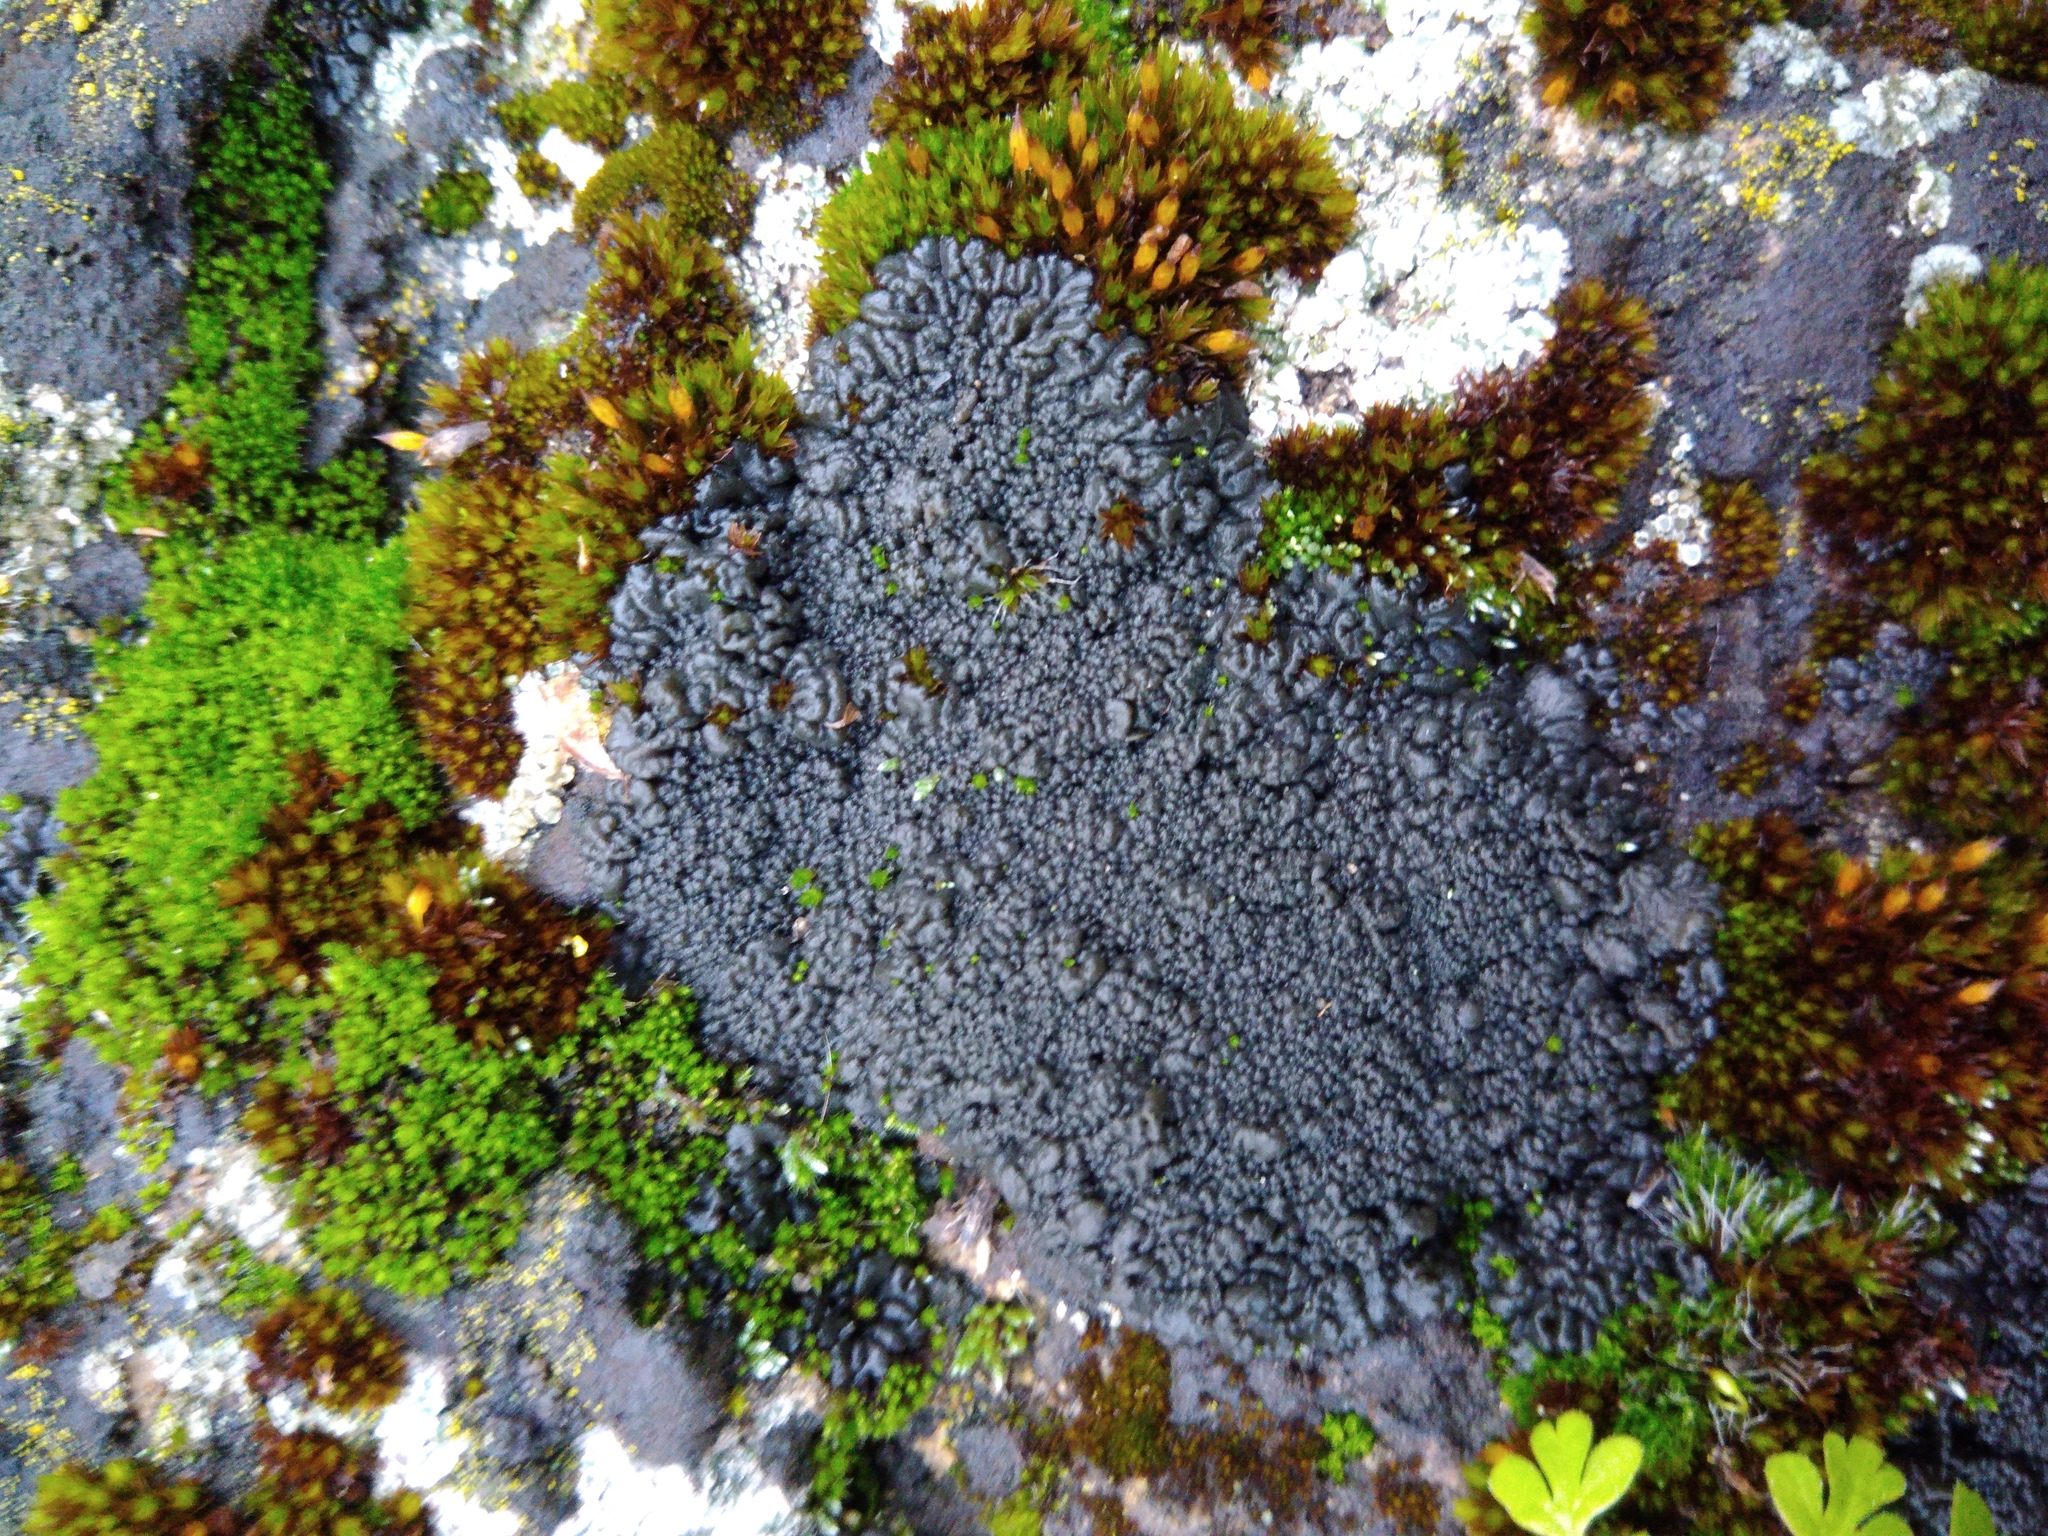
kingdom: Fungi
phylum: Ascomycota
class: Lecanoromycetes
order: Peltigerales
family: Collemataceae
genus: Enchylium
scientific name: Enchylium tenax
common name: Jelly lichen
